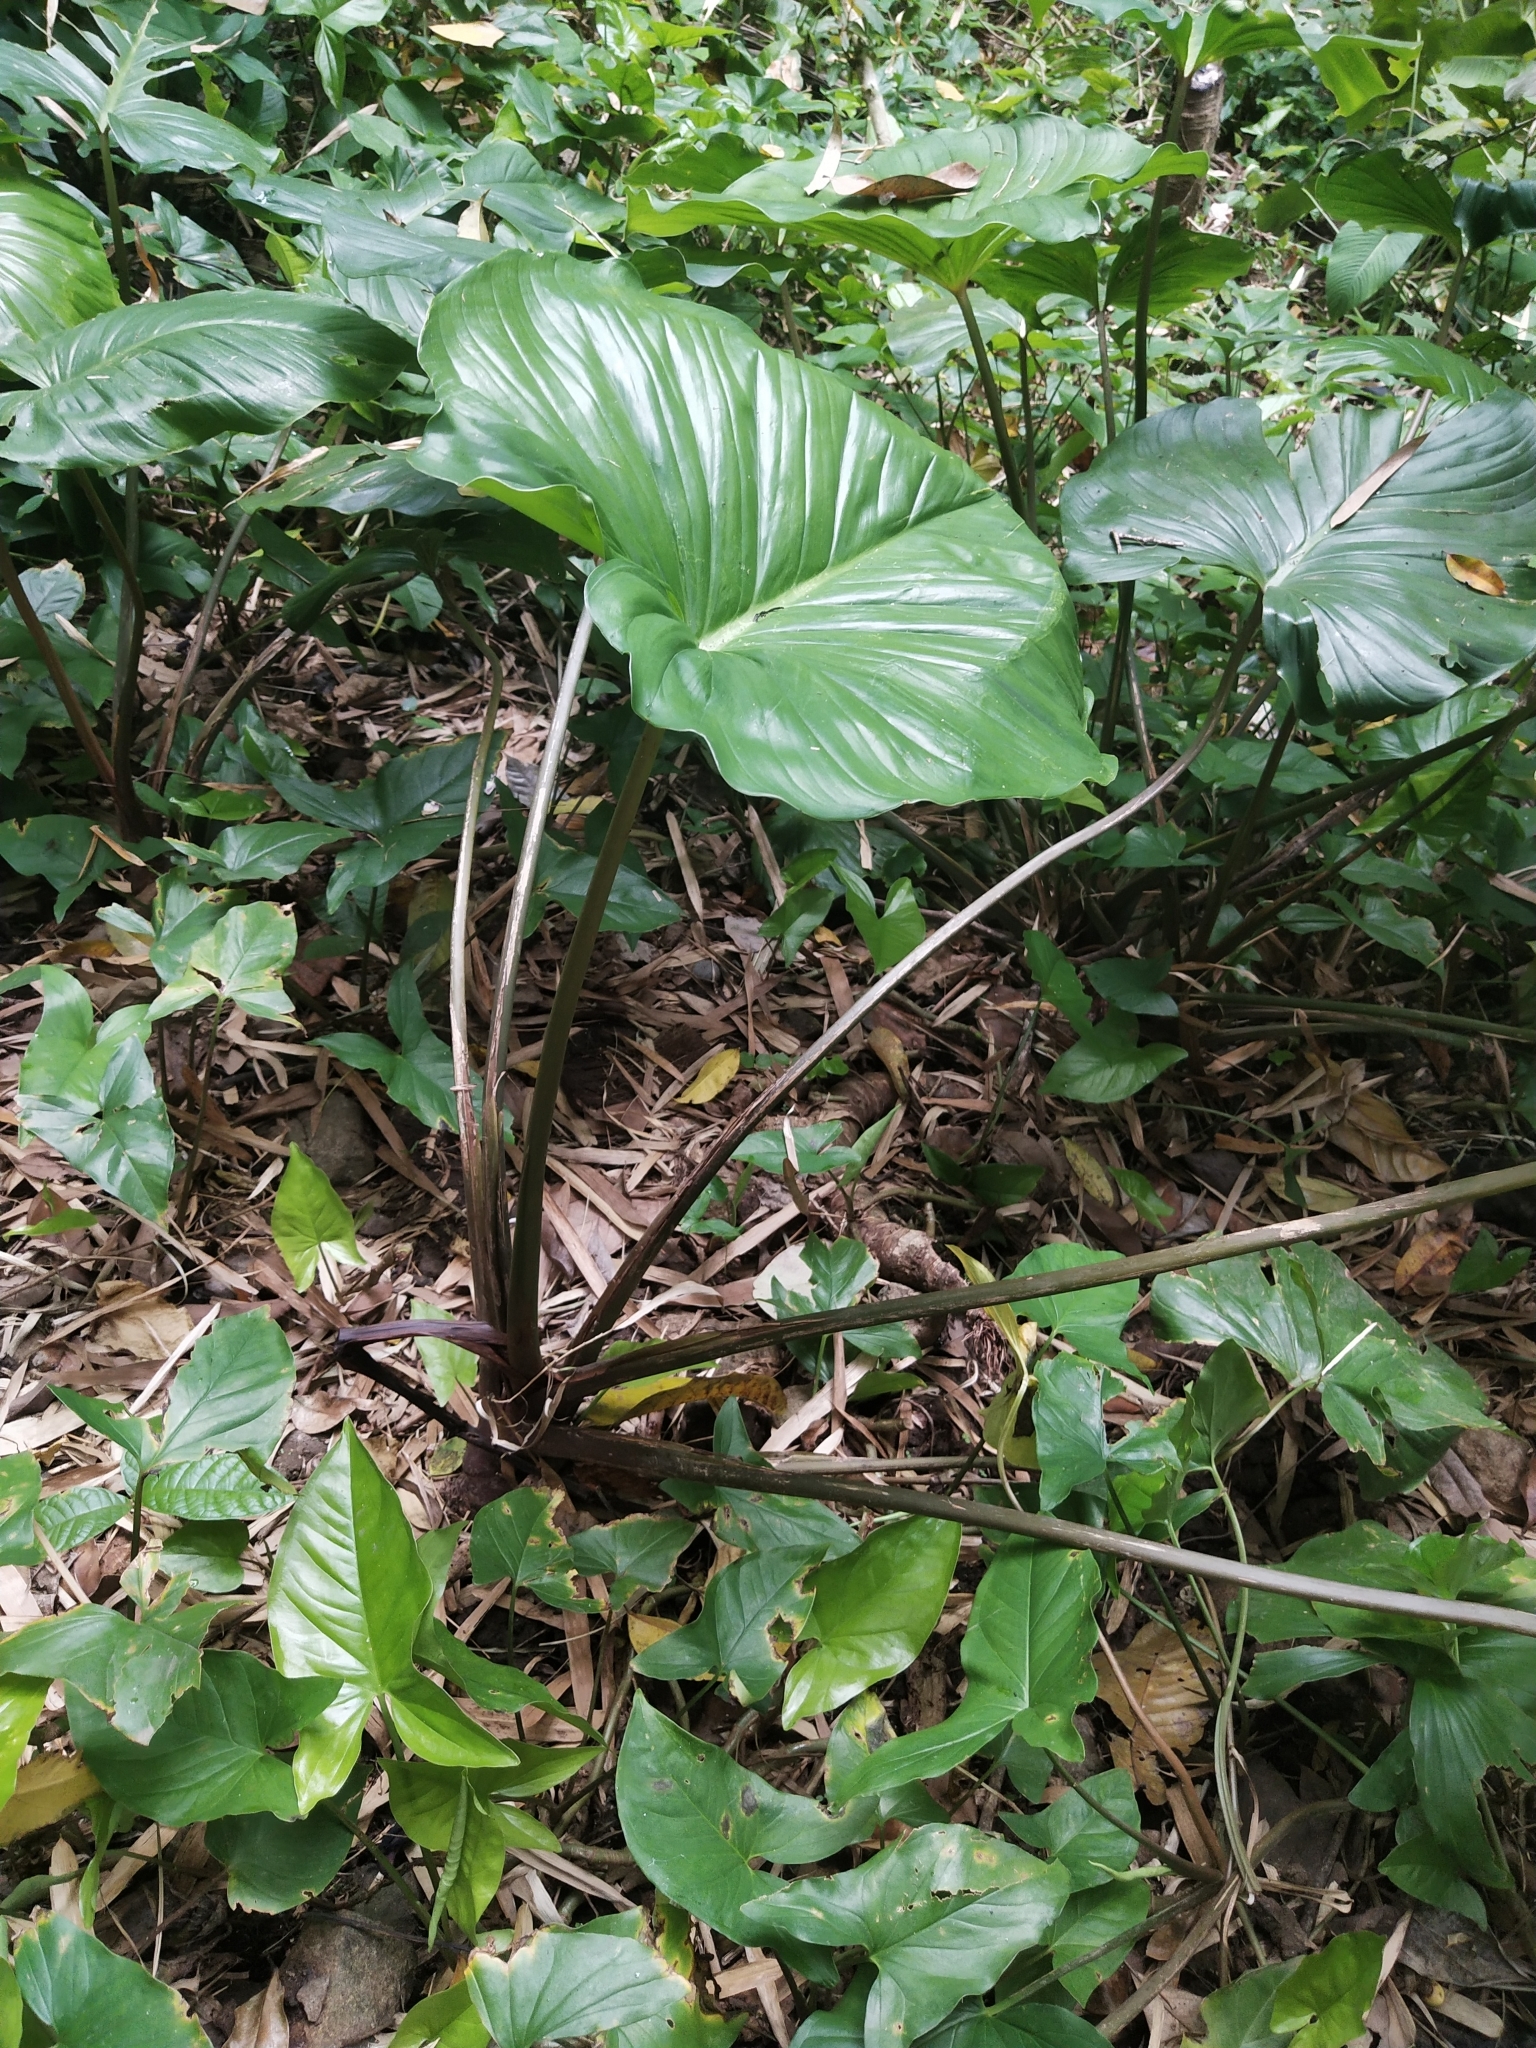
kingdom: Plantae
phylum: Tracheophyta
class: Liliopsida
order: Alismatales
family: Araceae
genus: Homalomena
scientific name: Homalomena philippinensis
